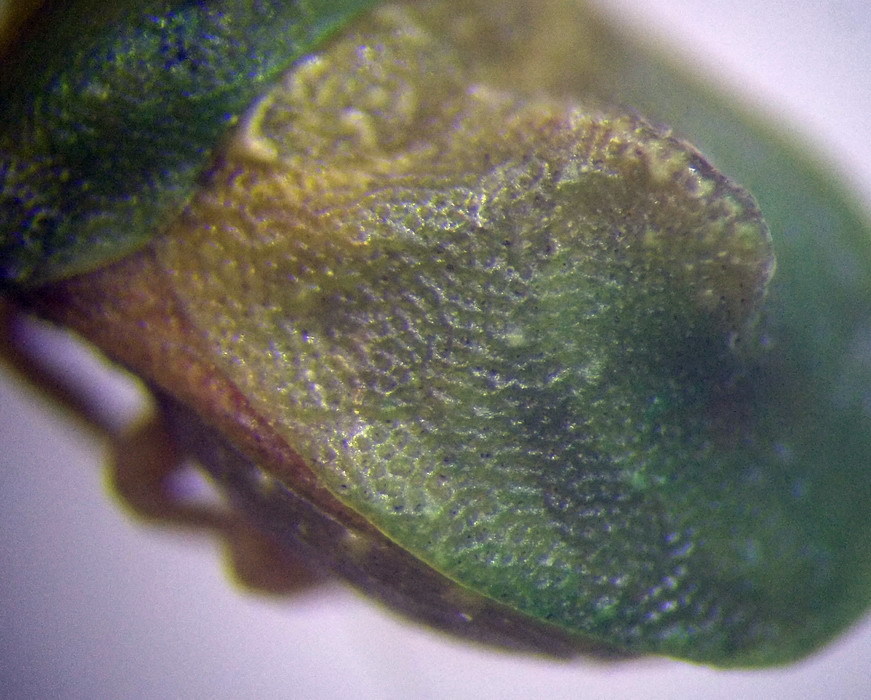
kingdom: Animalia
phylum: Arthropoda
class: Insecta
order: Hemiptera
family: Pentatomidae
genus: Tarisa
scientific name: Tarisa elevata
